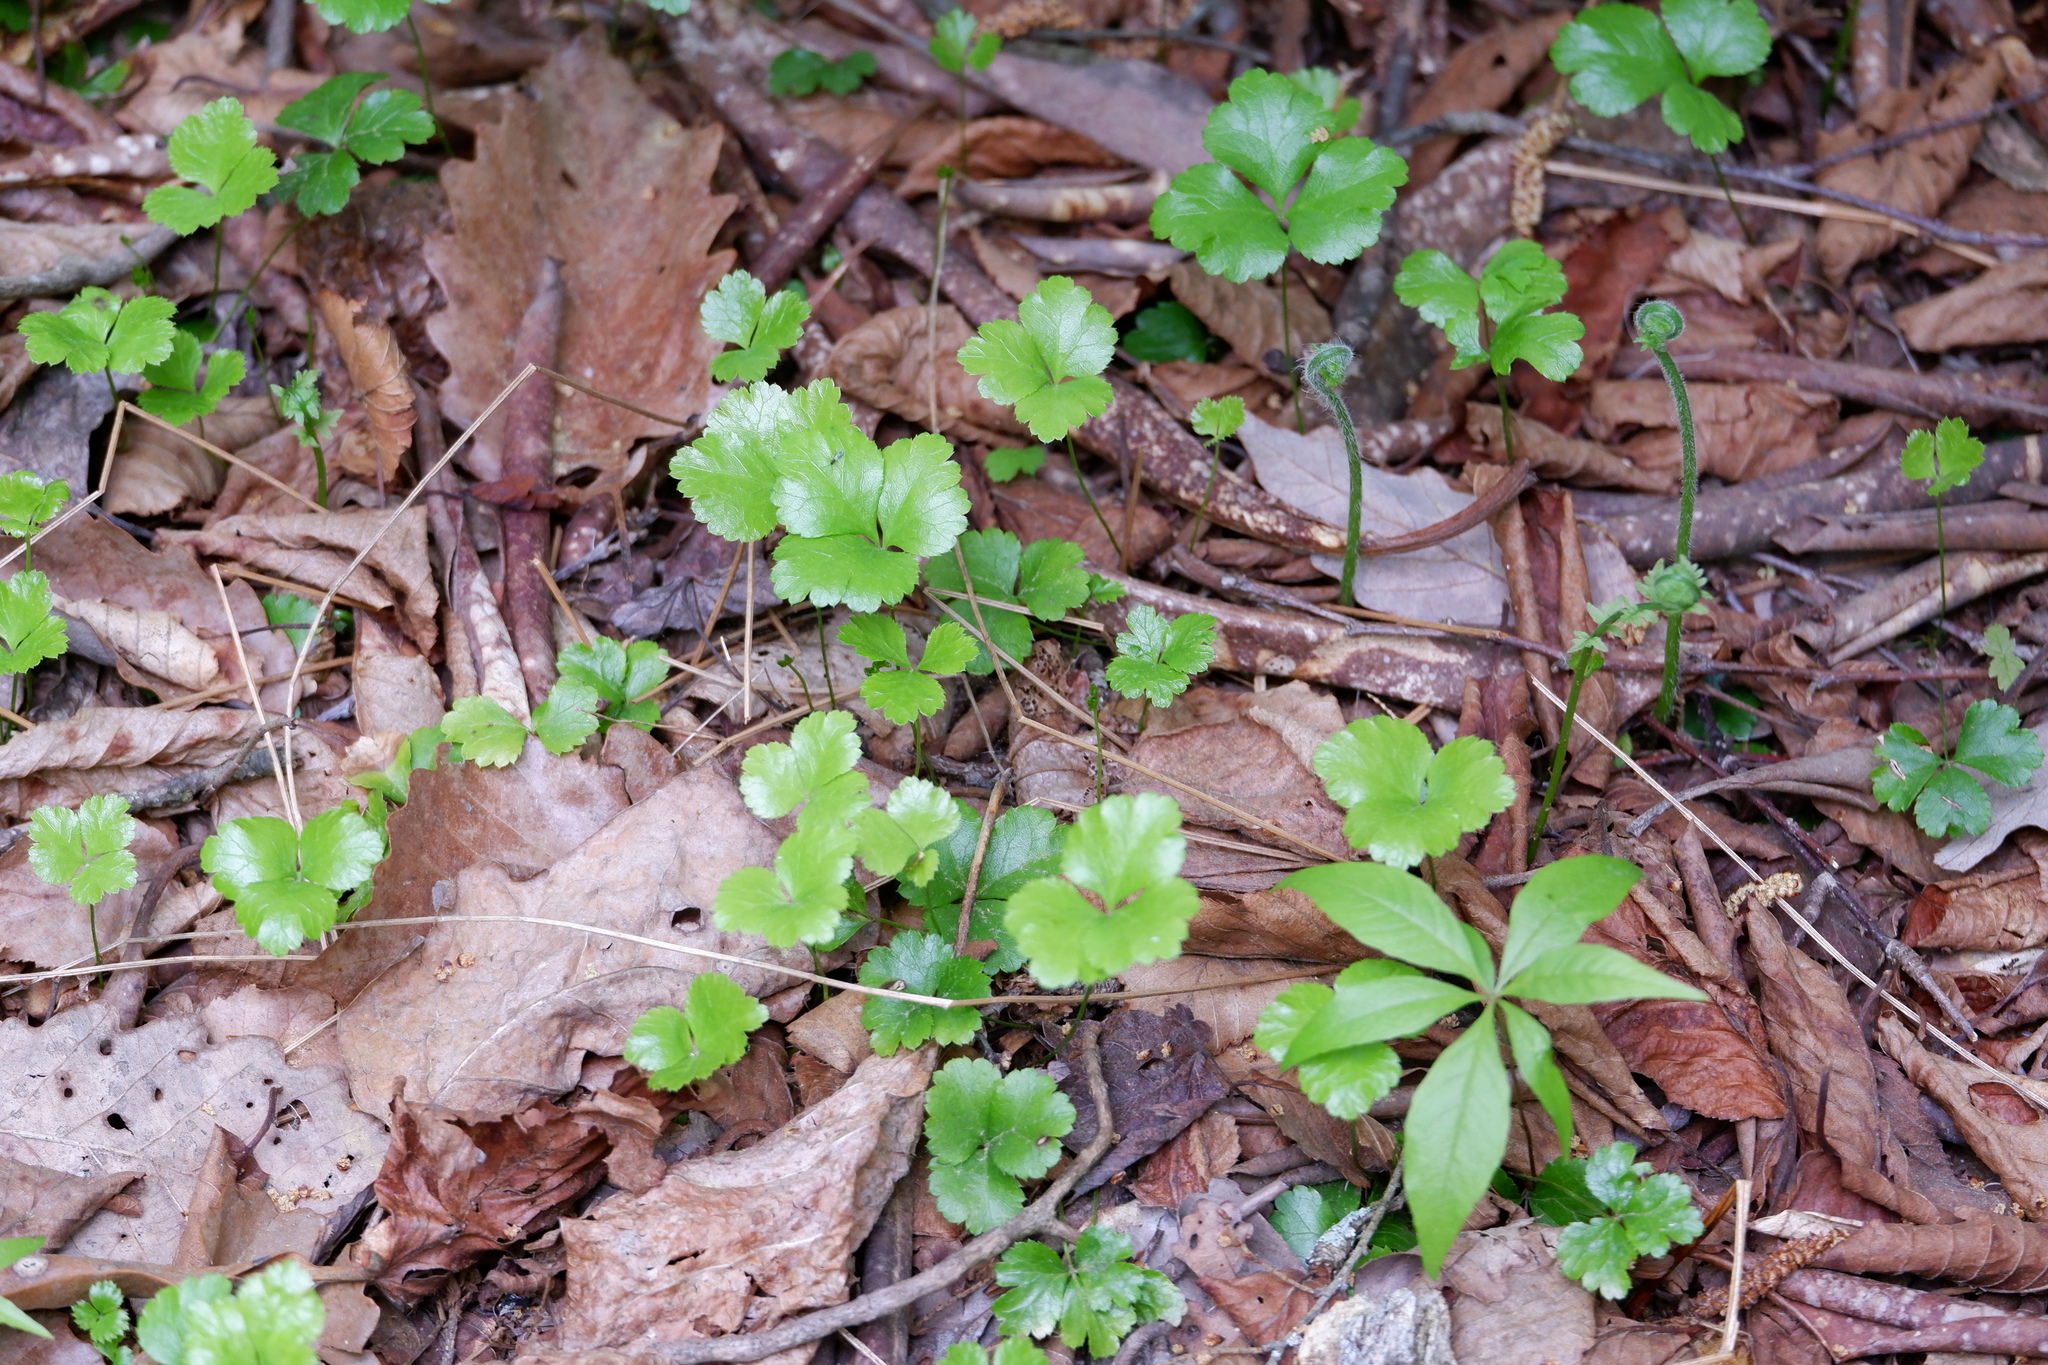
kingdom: Plantae
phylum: Tracheophyta
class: Magnoliopsida
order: Ranunculales
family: Ranunculaceae
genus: Coptis
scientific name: Coptis trifolia
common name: Canker-root
